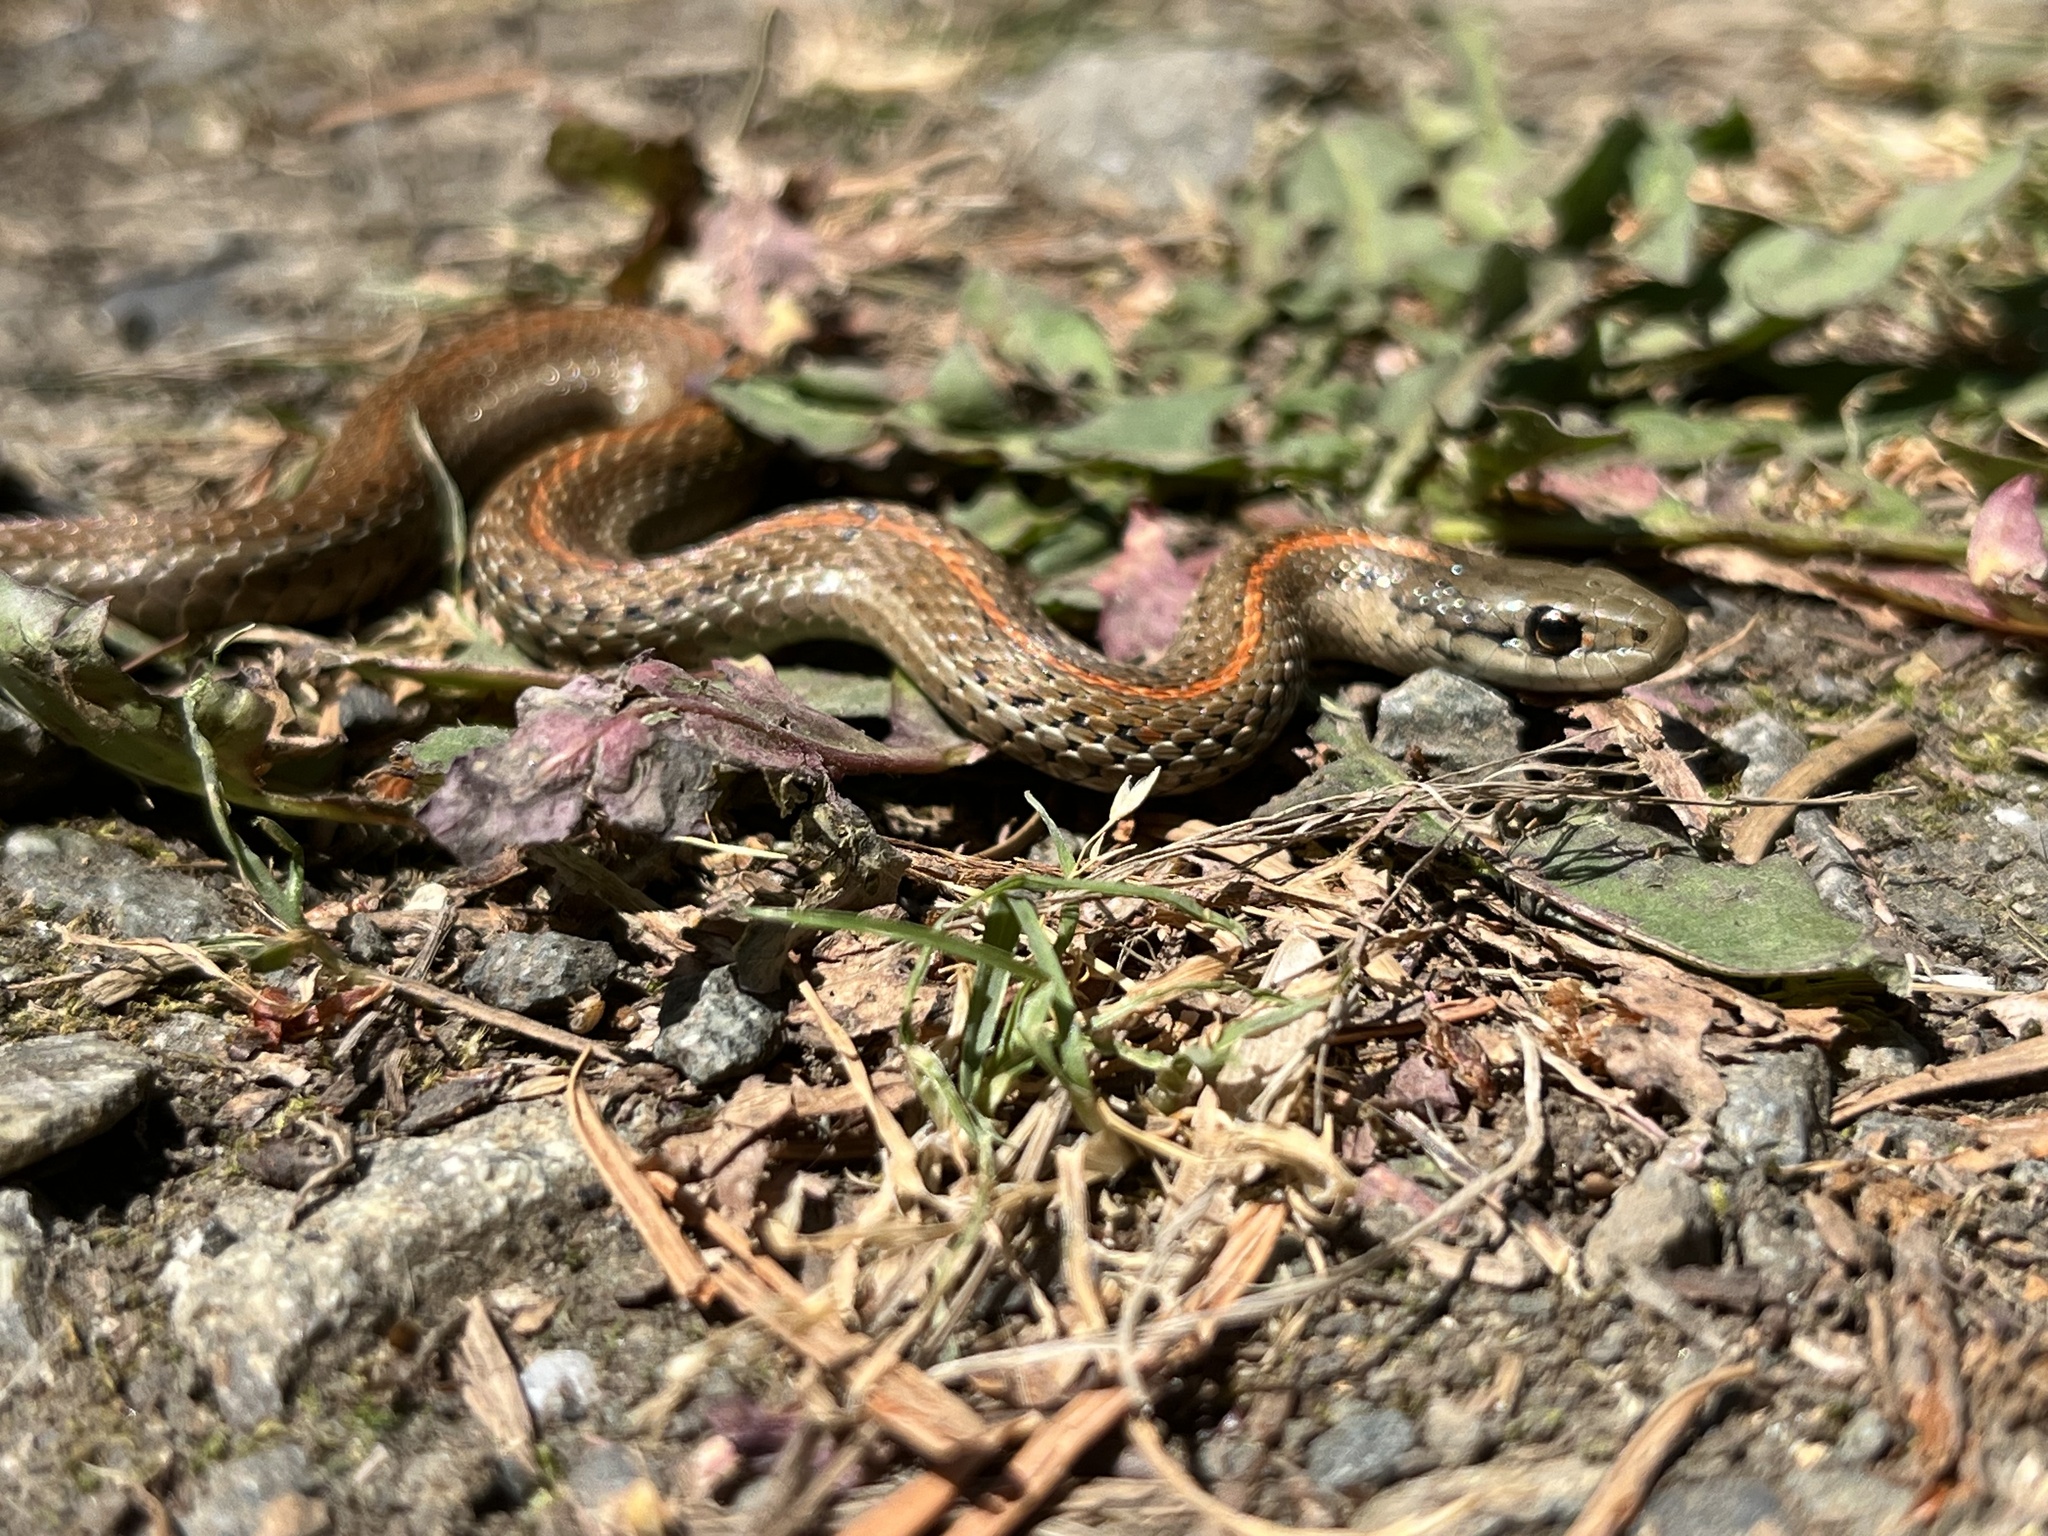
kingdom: Animalia
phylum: Chordata
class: Squamata
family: Colubridae
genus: Thamnophis
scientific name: Thamnophis ordinoides
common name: Northwestern garter snake
